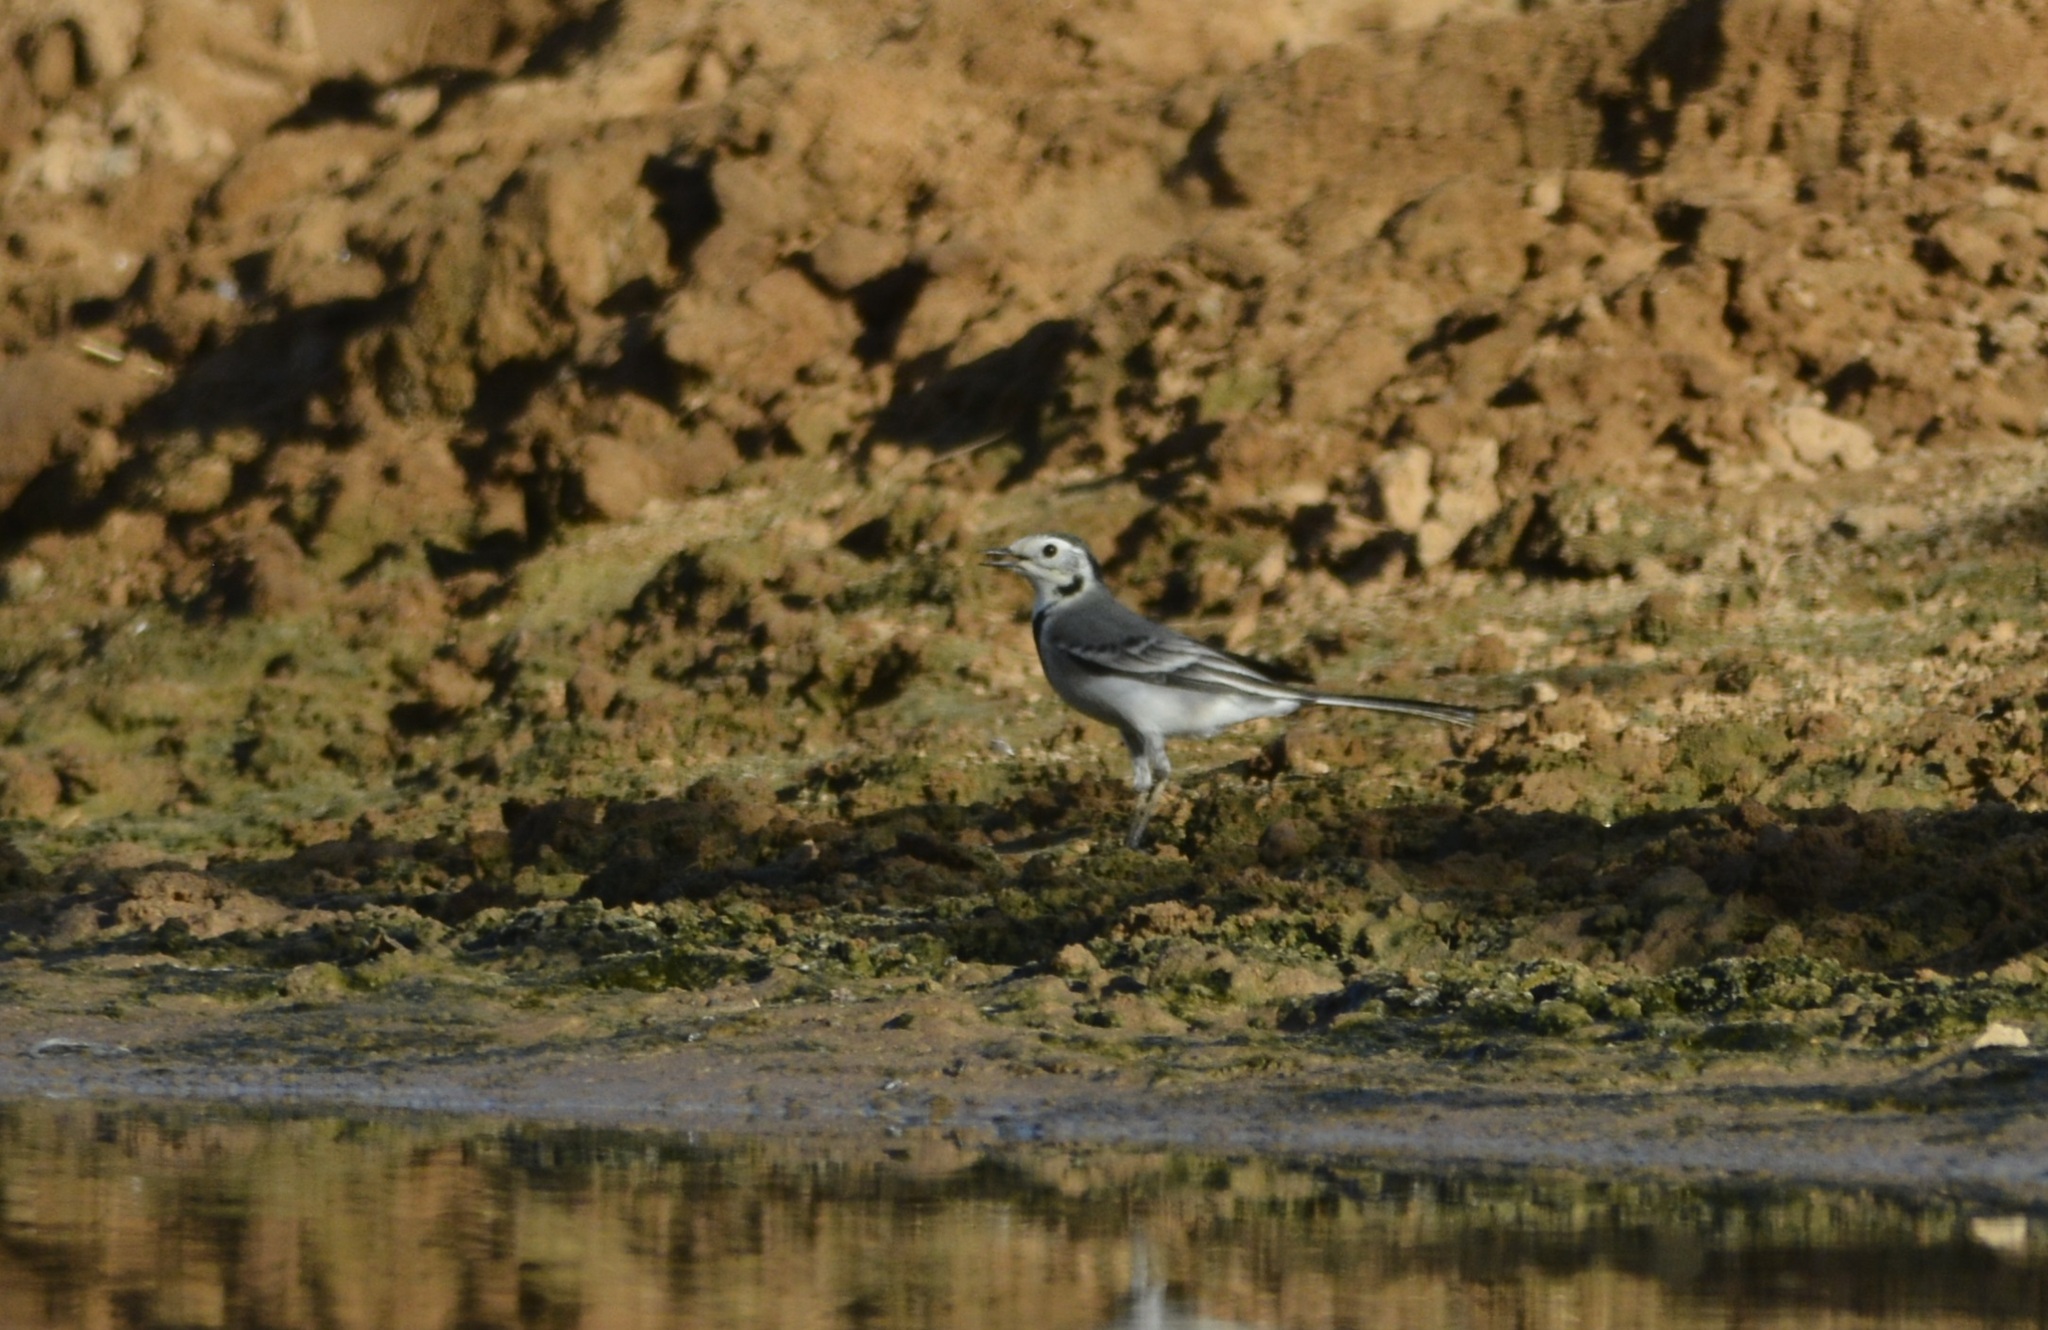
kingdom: Animalia
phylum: Chordata
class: Aves
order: Passeriformes
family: Motacillidae
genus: Motacilla
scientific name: Motacilla alba
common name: White wagtail
